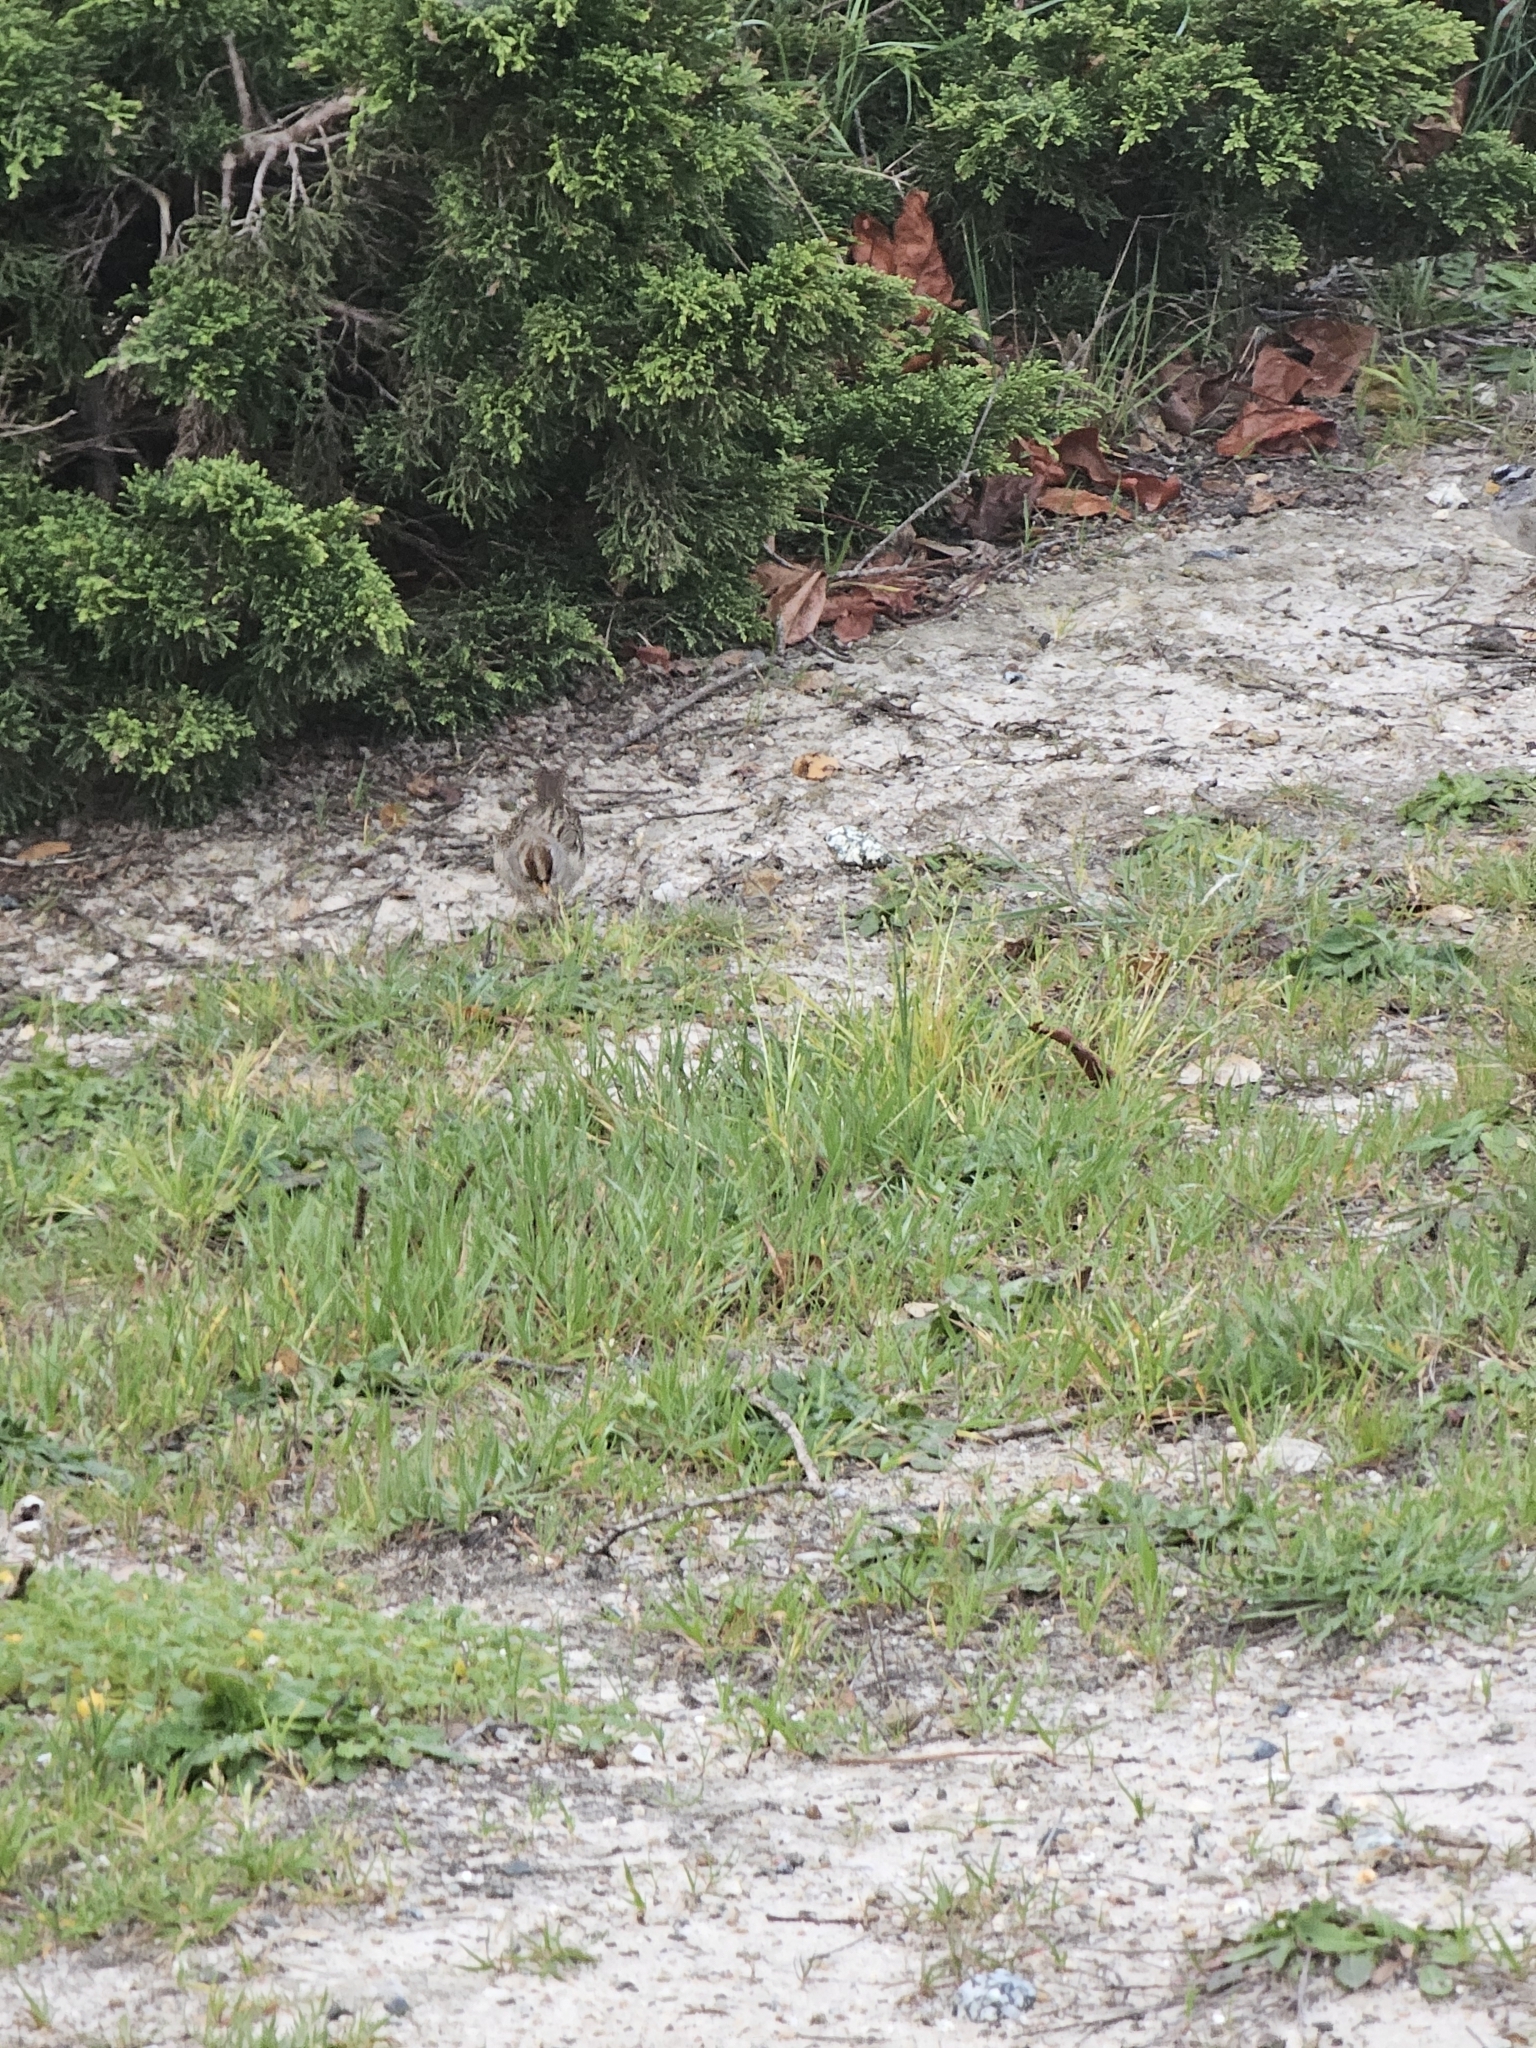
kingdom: Animalia
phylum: Chordata
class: Aves
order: Passeriformes
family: Passerellidae
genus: Zonotrichia
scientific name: Zonotrichia leucophrys
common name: White-crowned sparrow
